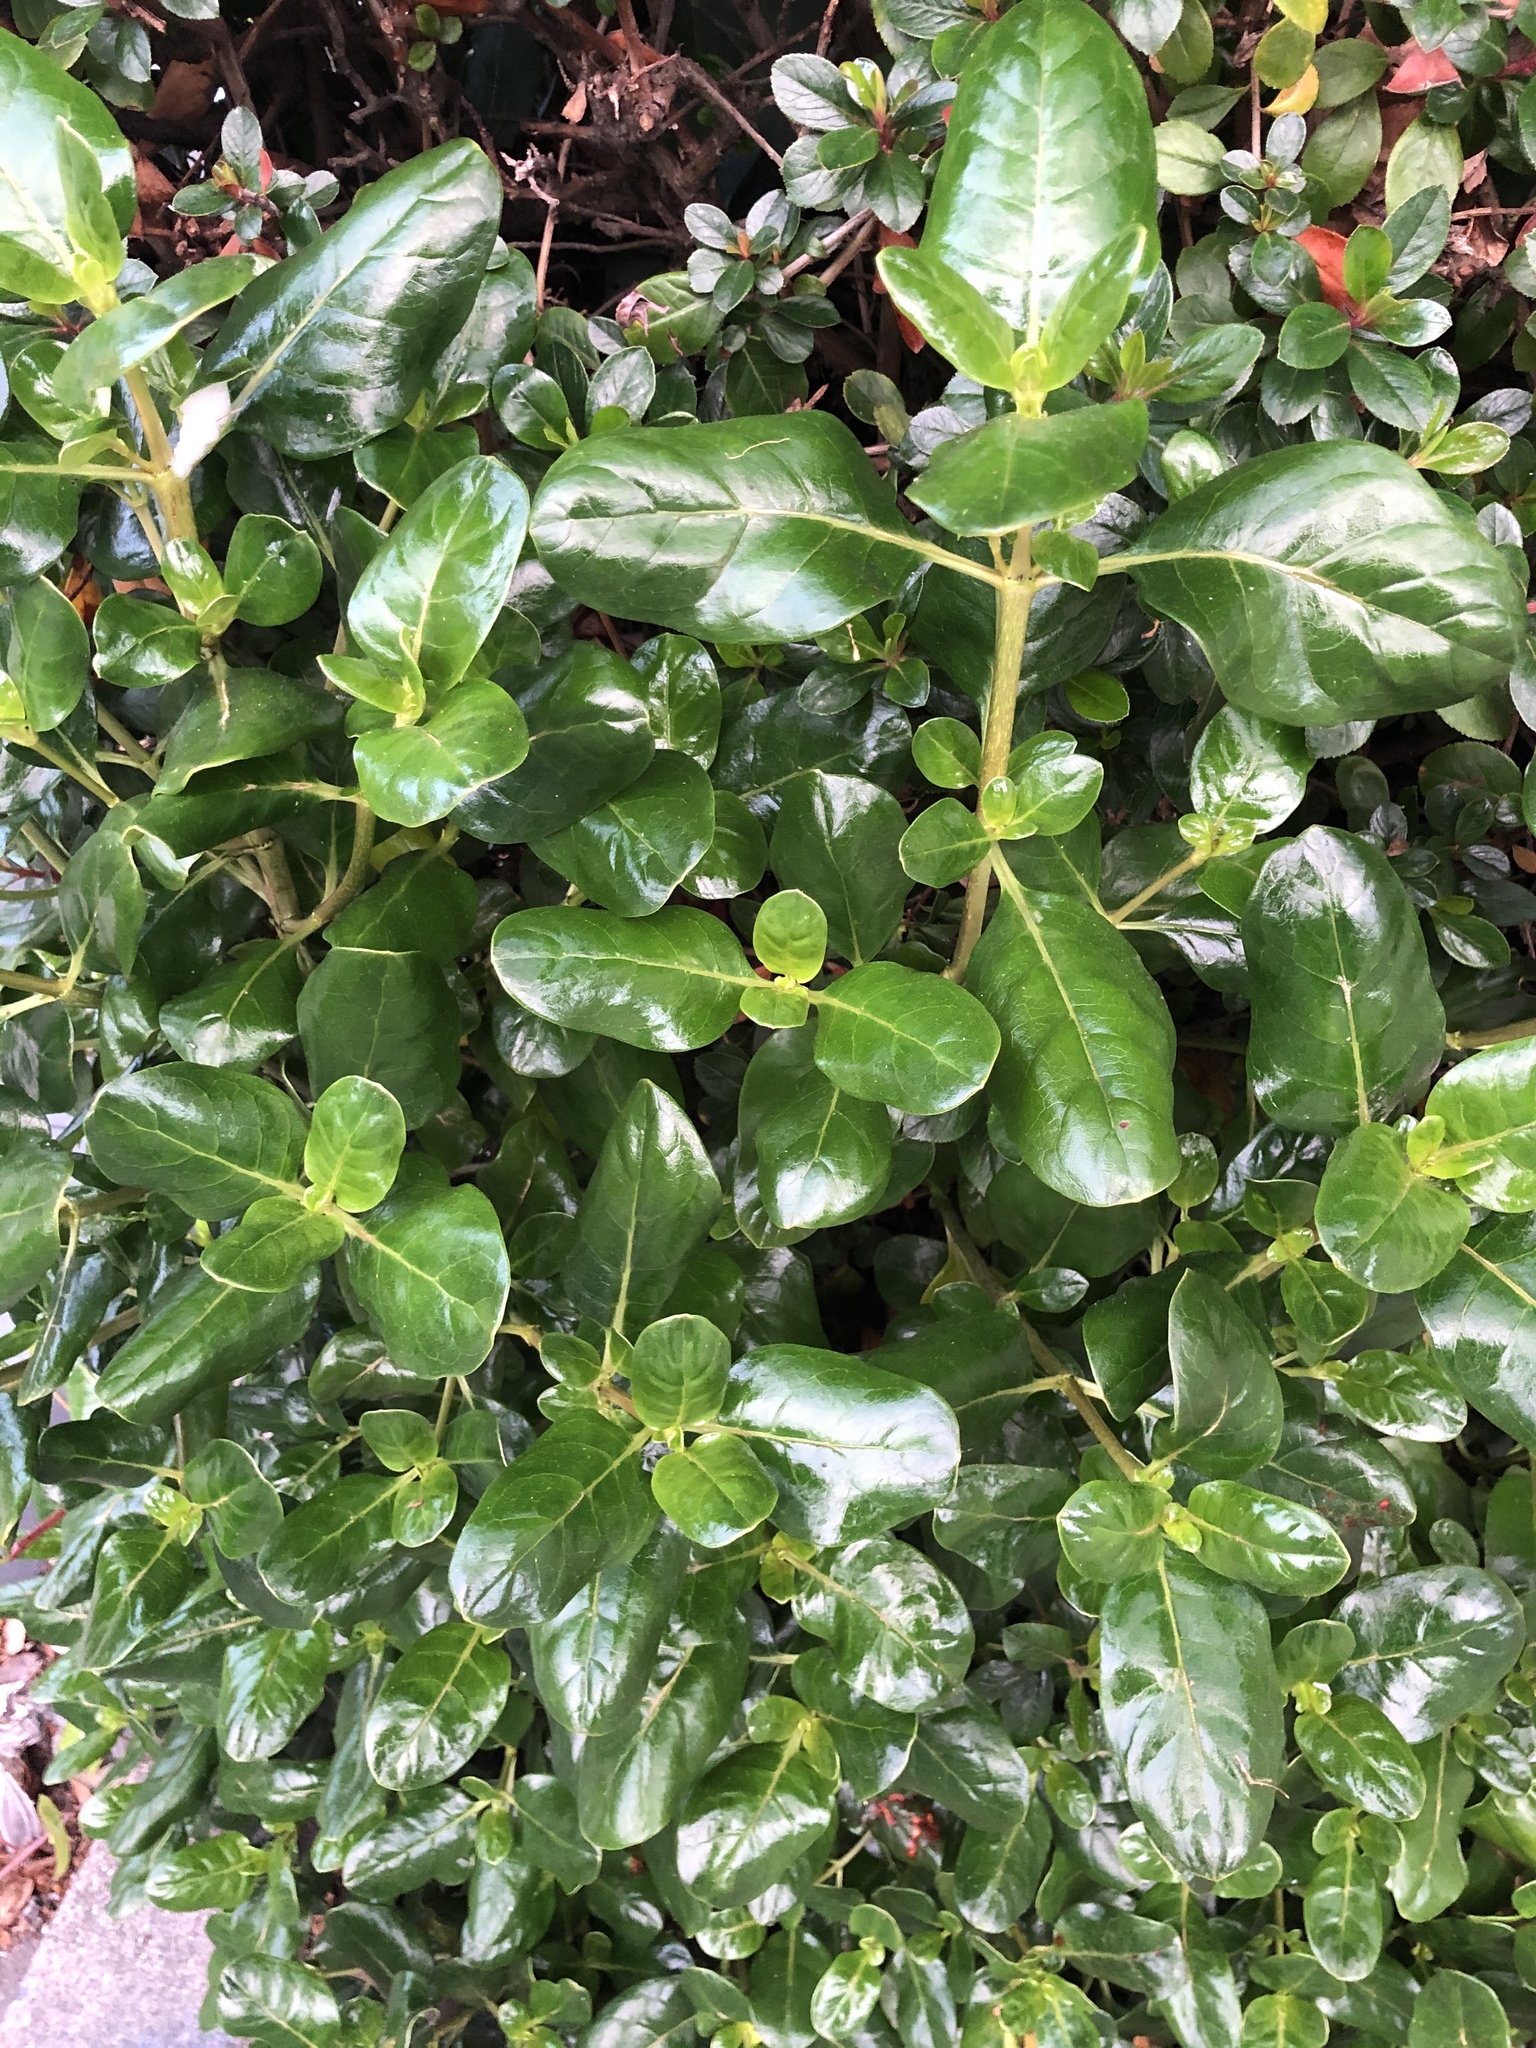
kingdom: Plantae
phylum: Tracheophyta
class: Magnoliopsida
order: Gentianales
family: Rubiaceae
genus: Coprosma
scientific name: Coprosma repens
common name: Tree bedstraw
